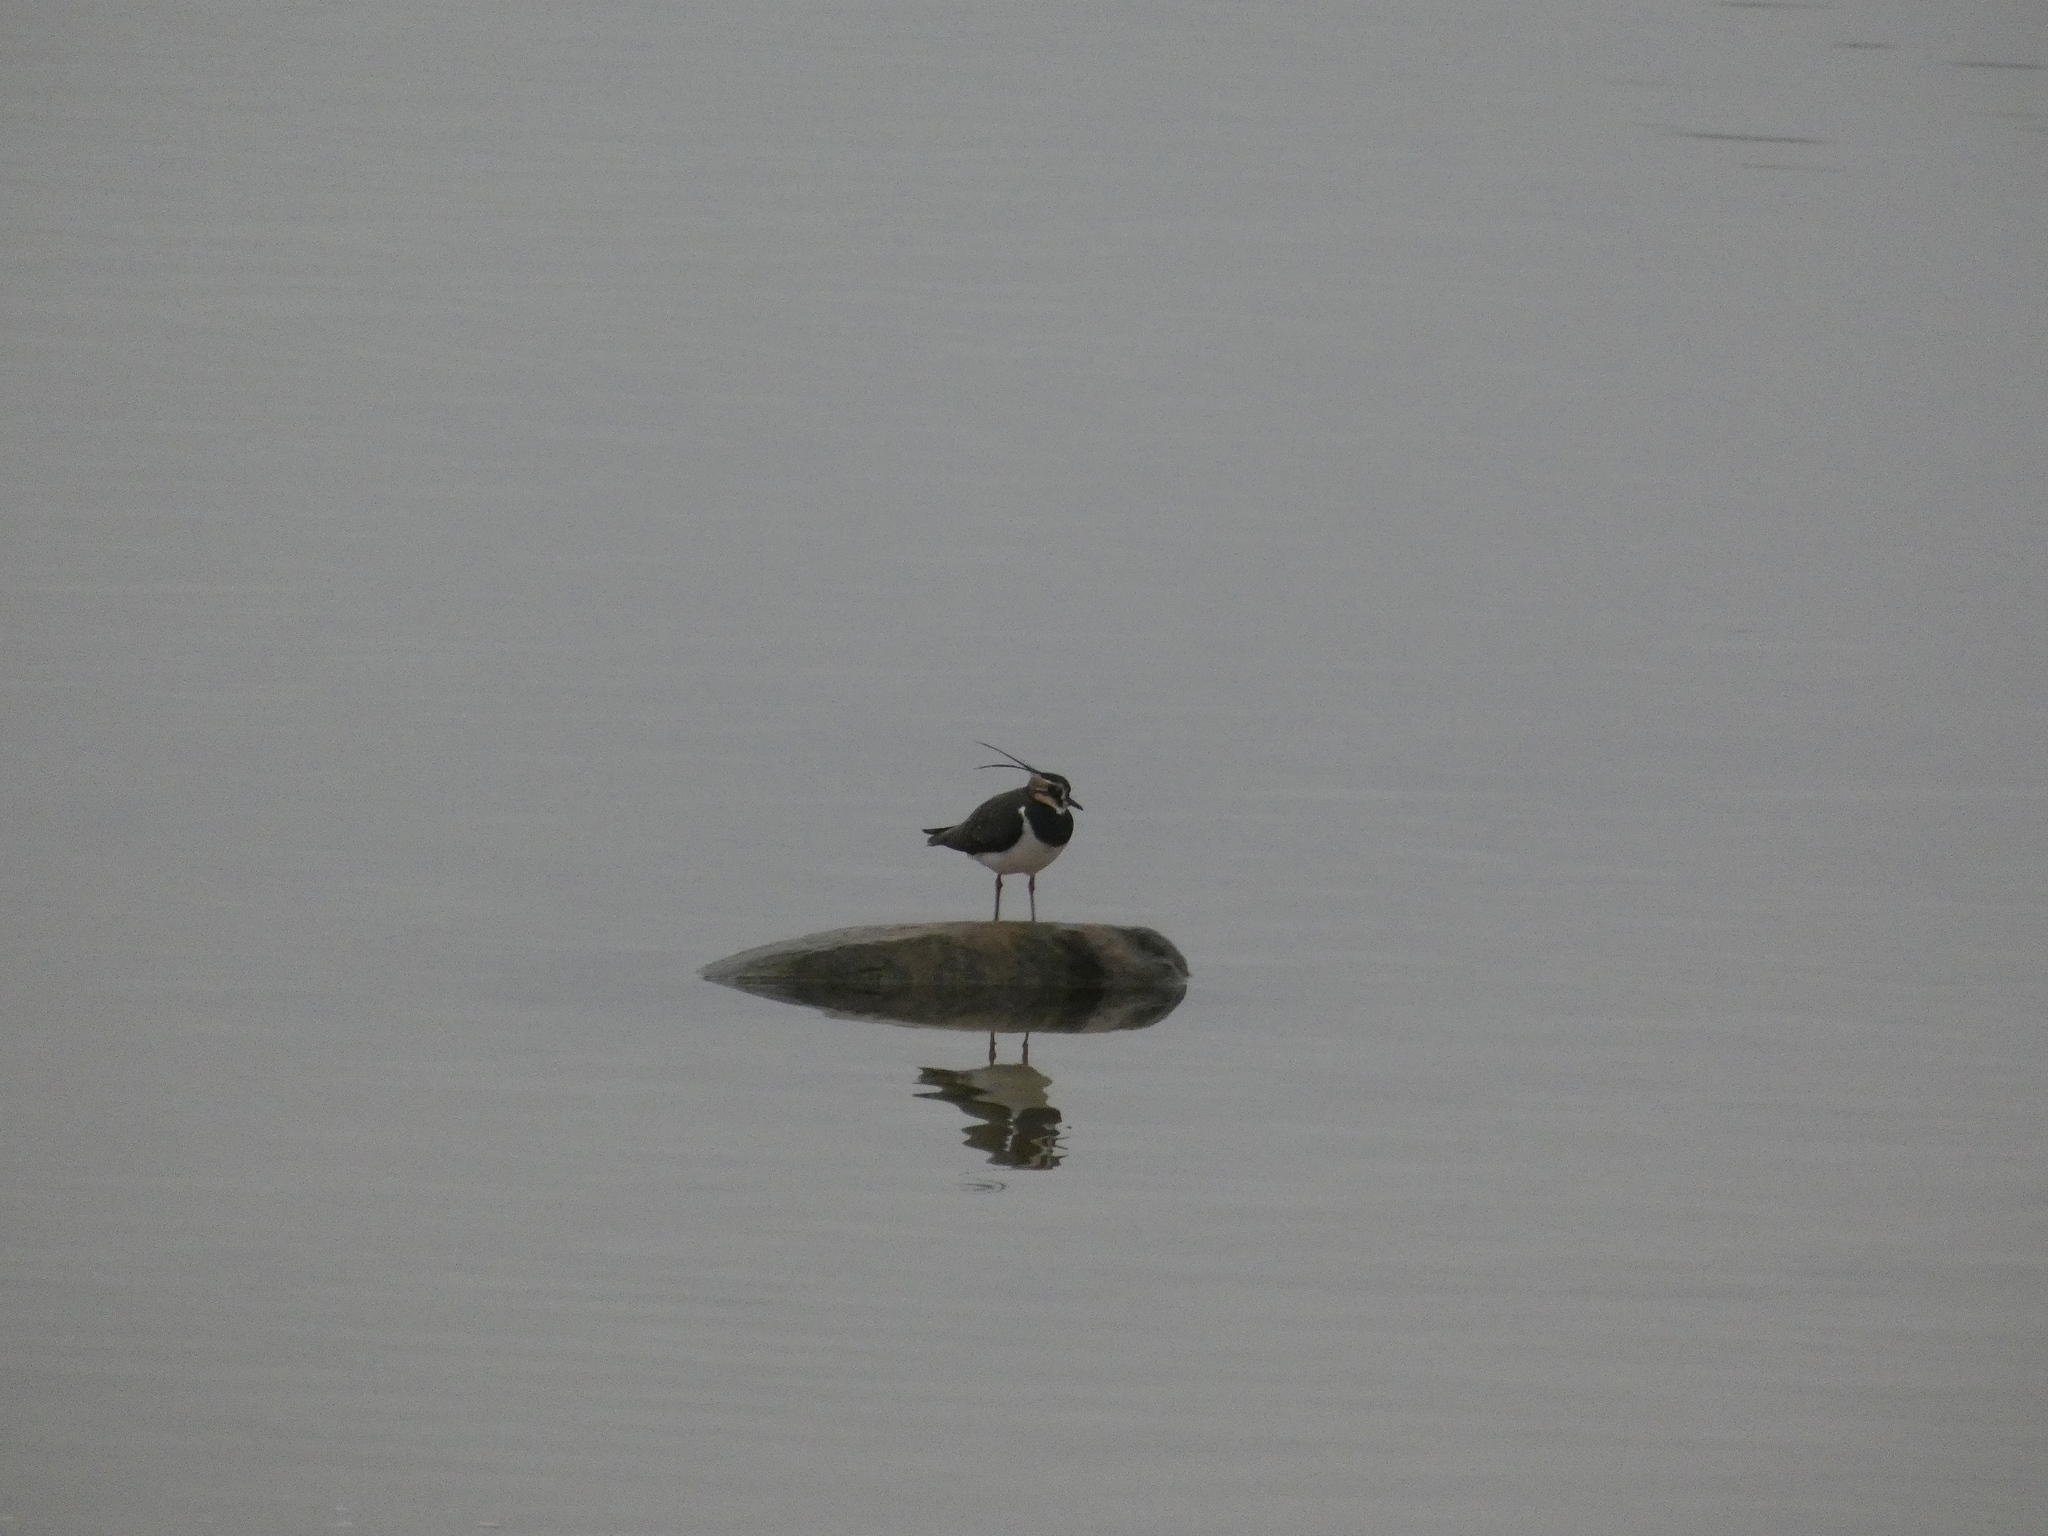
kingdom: Animalia
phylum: Chordata
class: Aves
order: Charadriiformes
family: Charadriidae
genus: Vanellus
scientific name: Vanellus vanellus
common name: Northern lapwing
